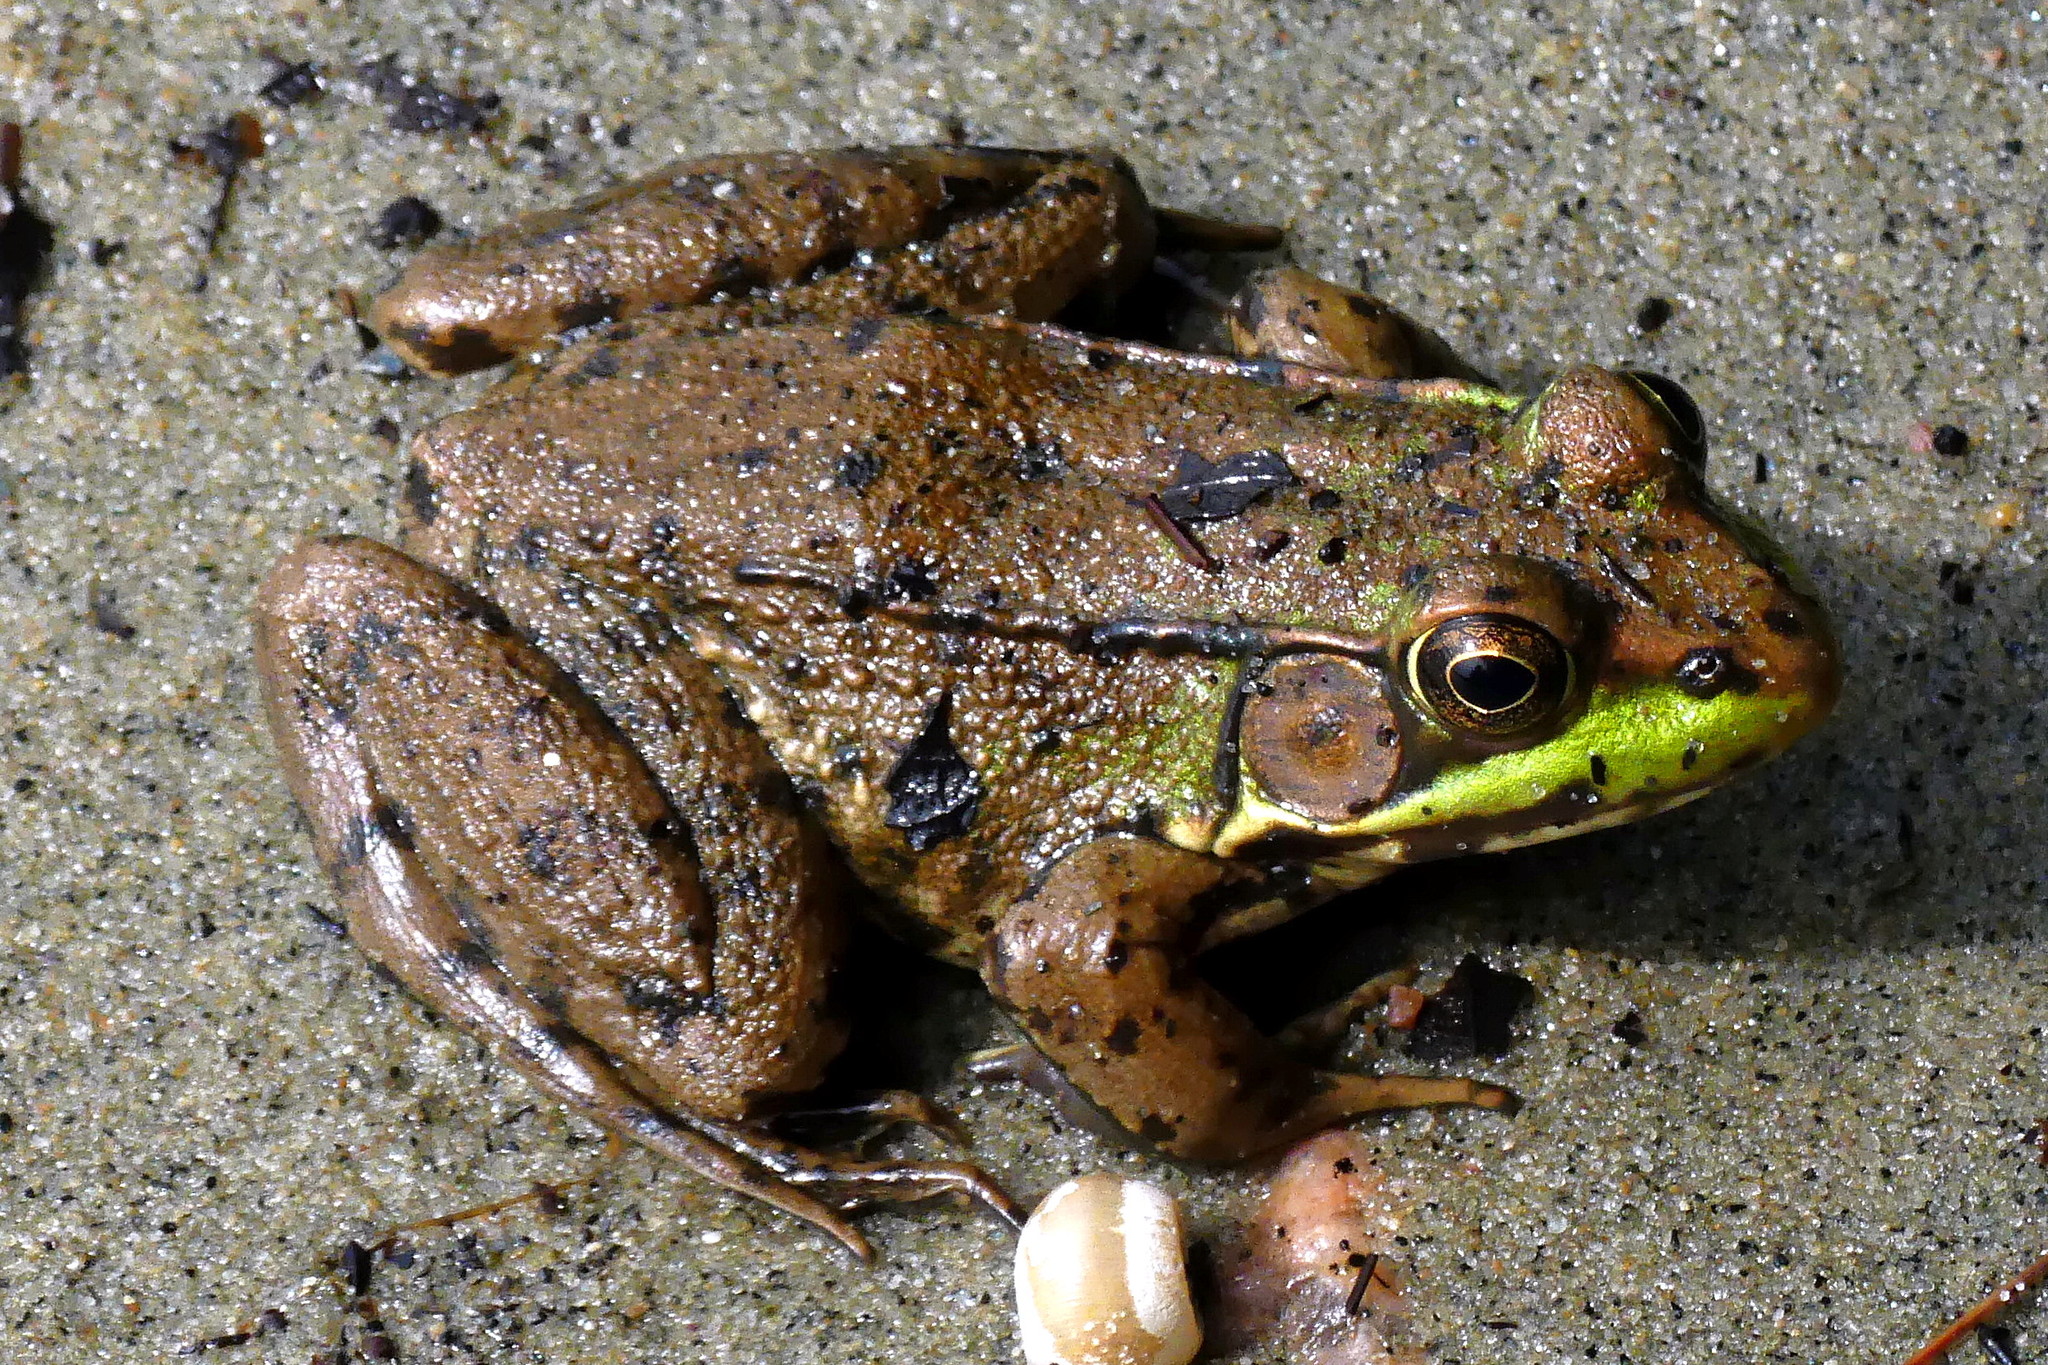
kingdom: Animalia
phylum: Chordata
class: Amphibia
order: Anura
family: Ranidae
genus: Lithobates
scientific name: Lithobates clamitans
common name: Green frog
